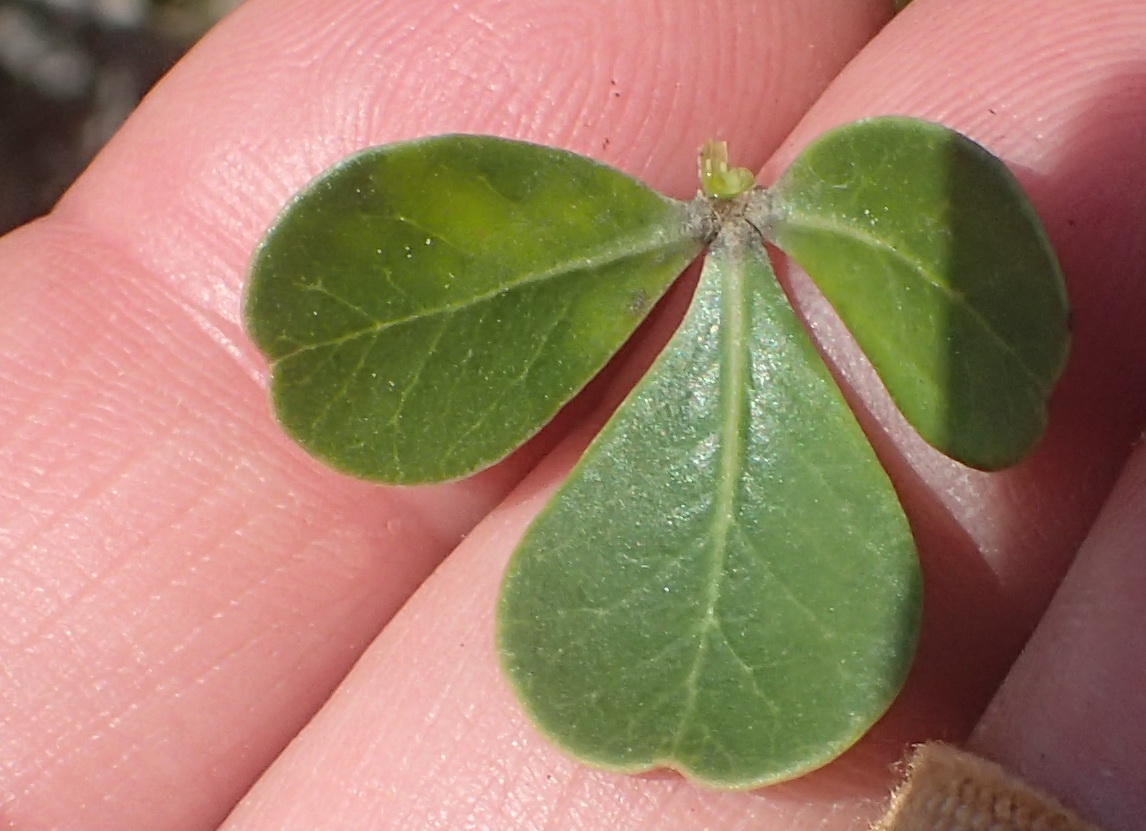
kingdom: Plantae
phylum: Tracheophyta
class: Magnoliopsida
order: Sapindales
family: Anacardiaceae
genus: Searsia
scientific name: Searsia glauca
